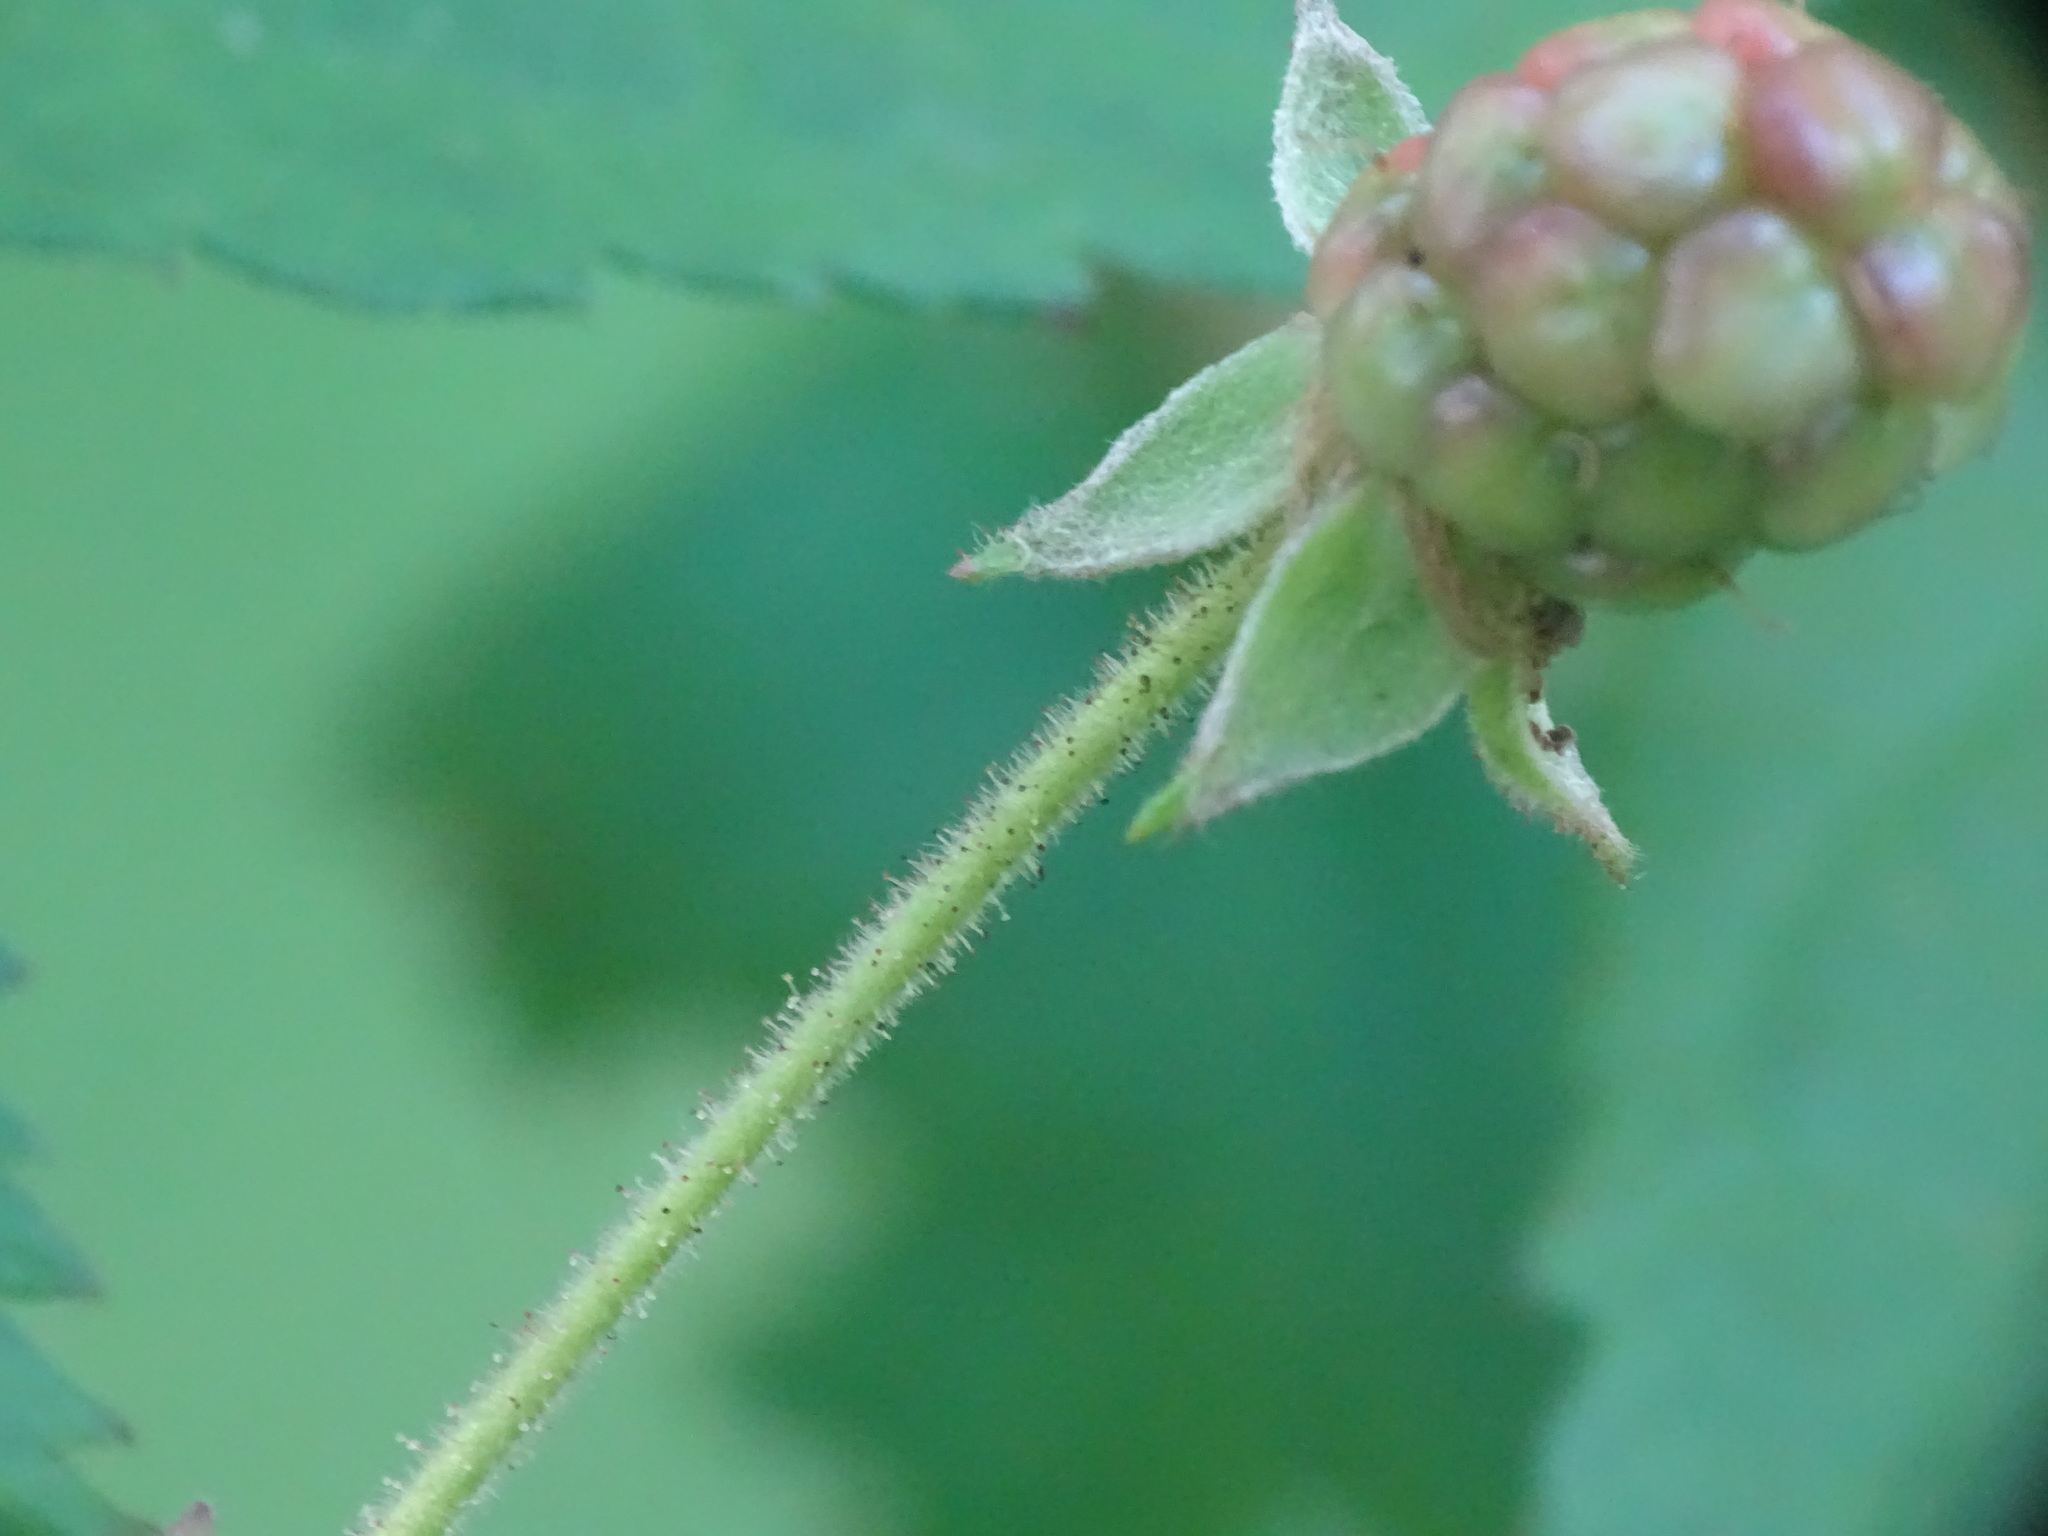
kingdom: Plantae
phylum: Tracheophyta
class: Magnoliopsida
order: Rosales
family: Rosaceae
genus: Rubus
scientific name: Rubus allegheniensis
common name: Allegheny blackberry
